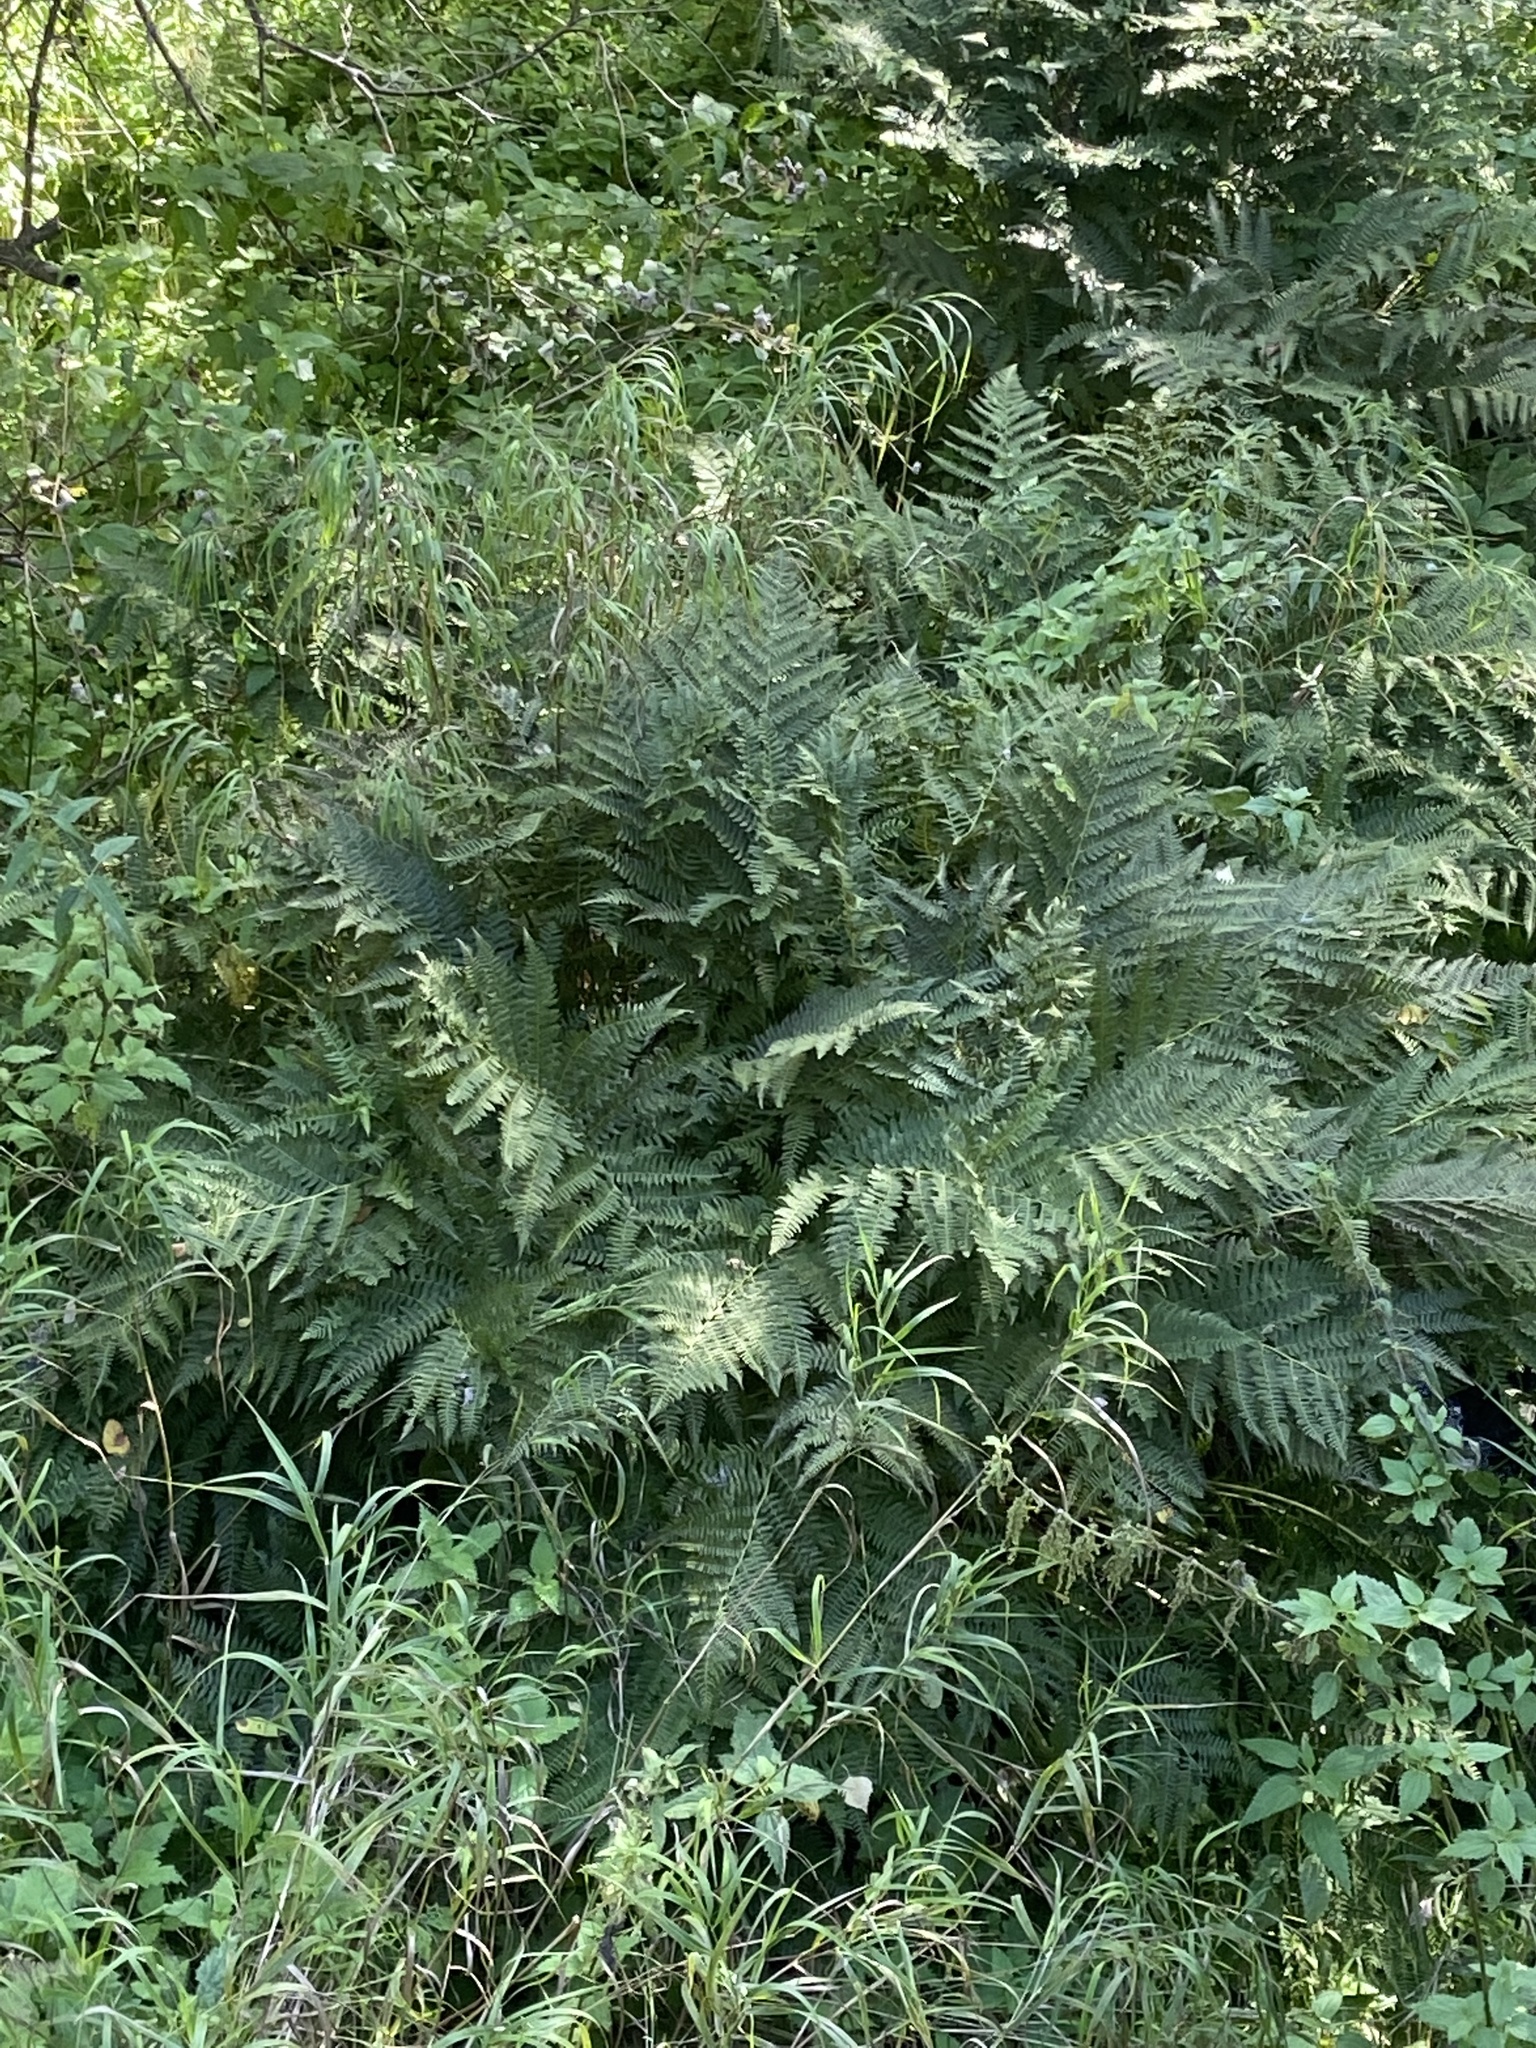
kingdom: Plantae
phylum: Tracheophyta
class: Polypodiopsida
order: Polypodiales
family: Athyriaceae
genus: Athyrium
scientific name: Athyrium filix-femina
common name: Lady fern
